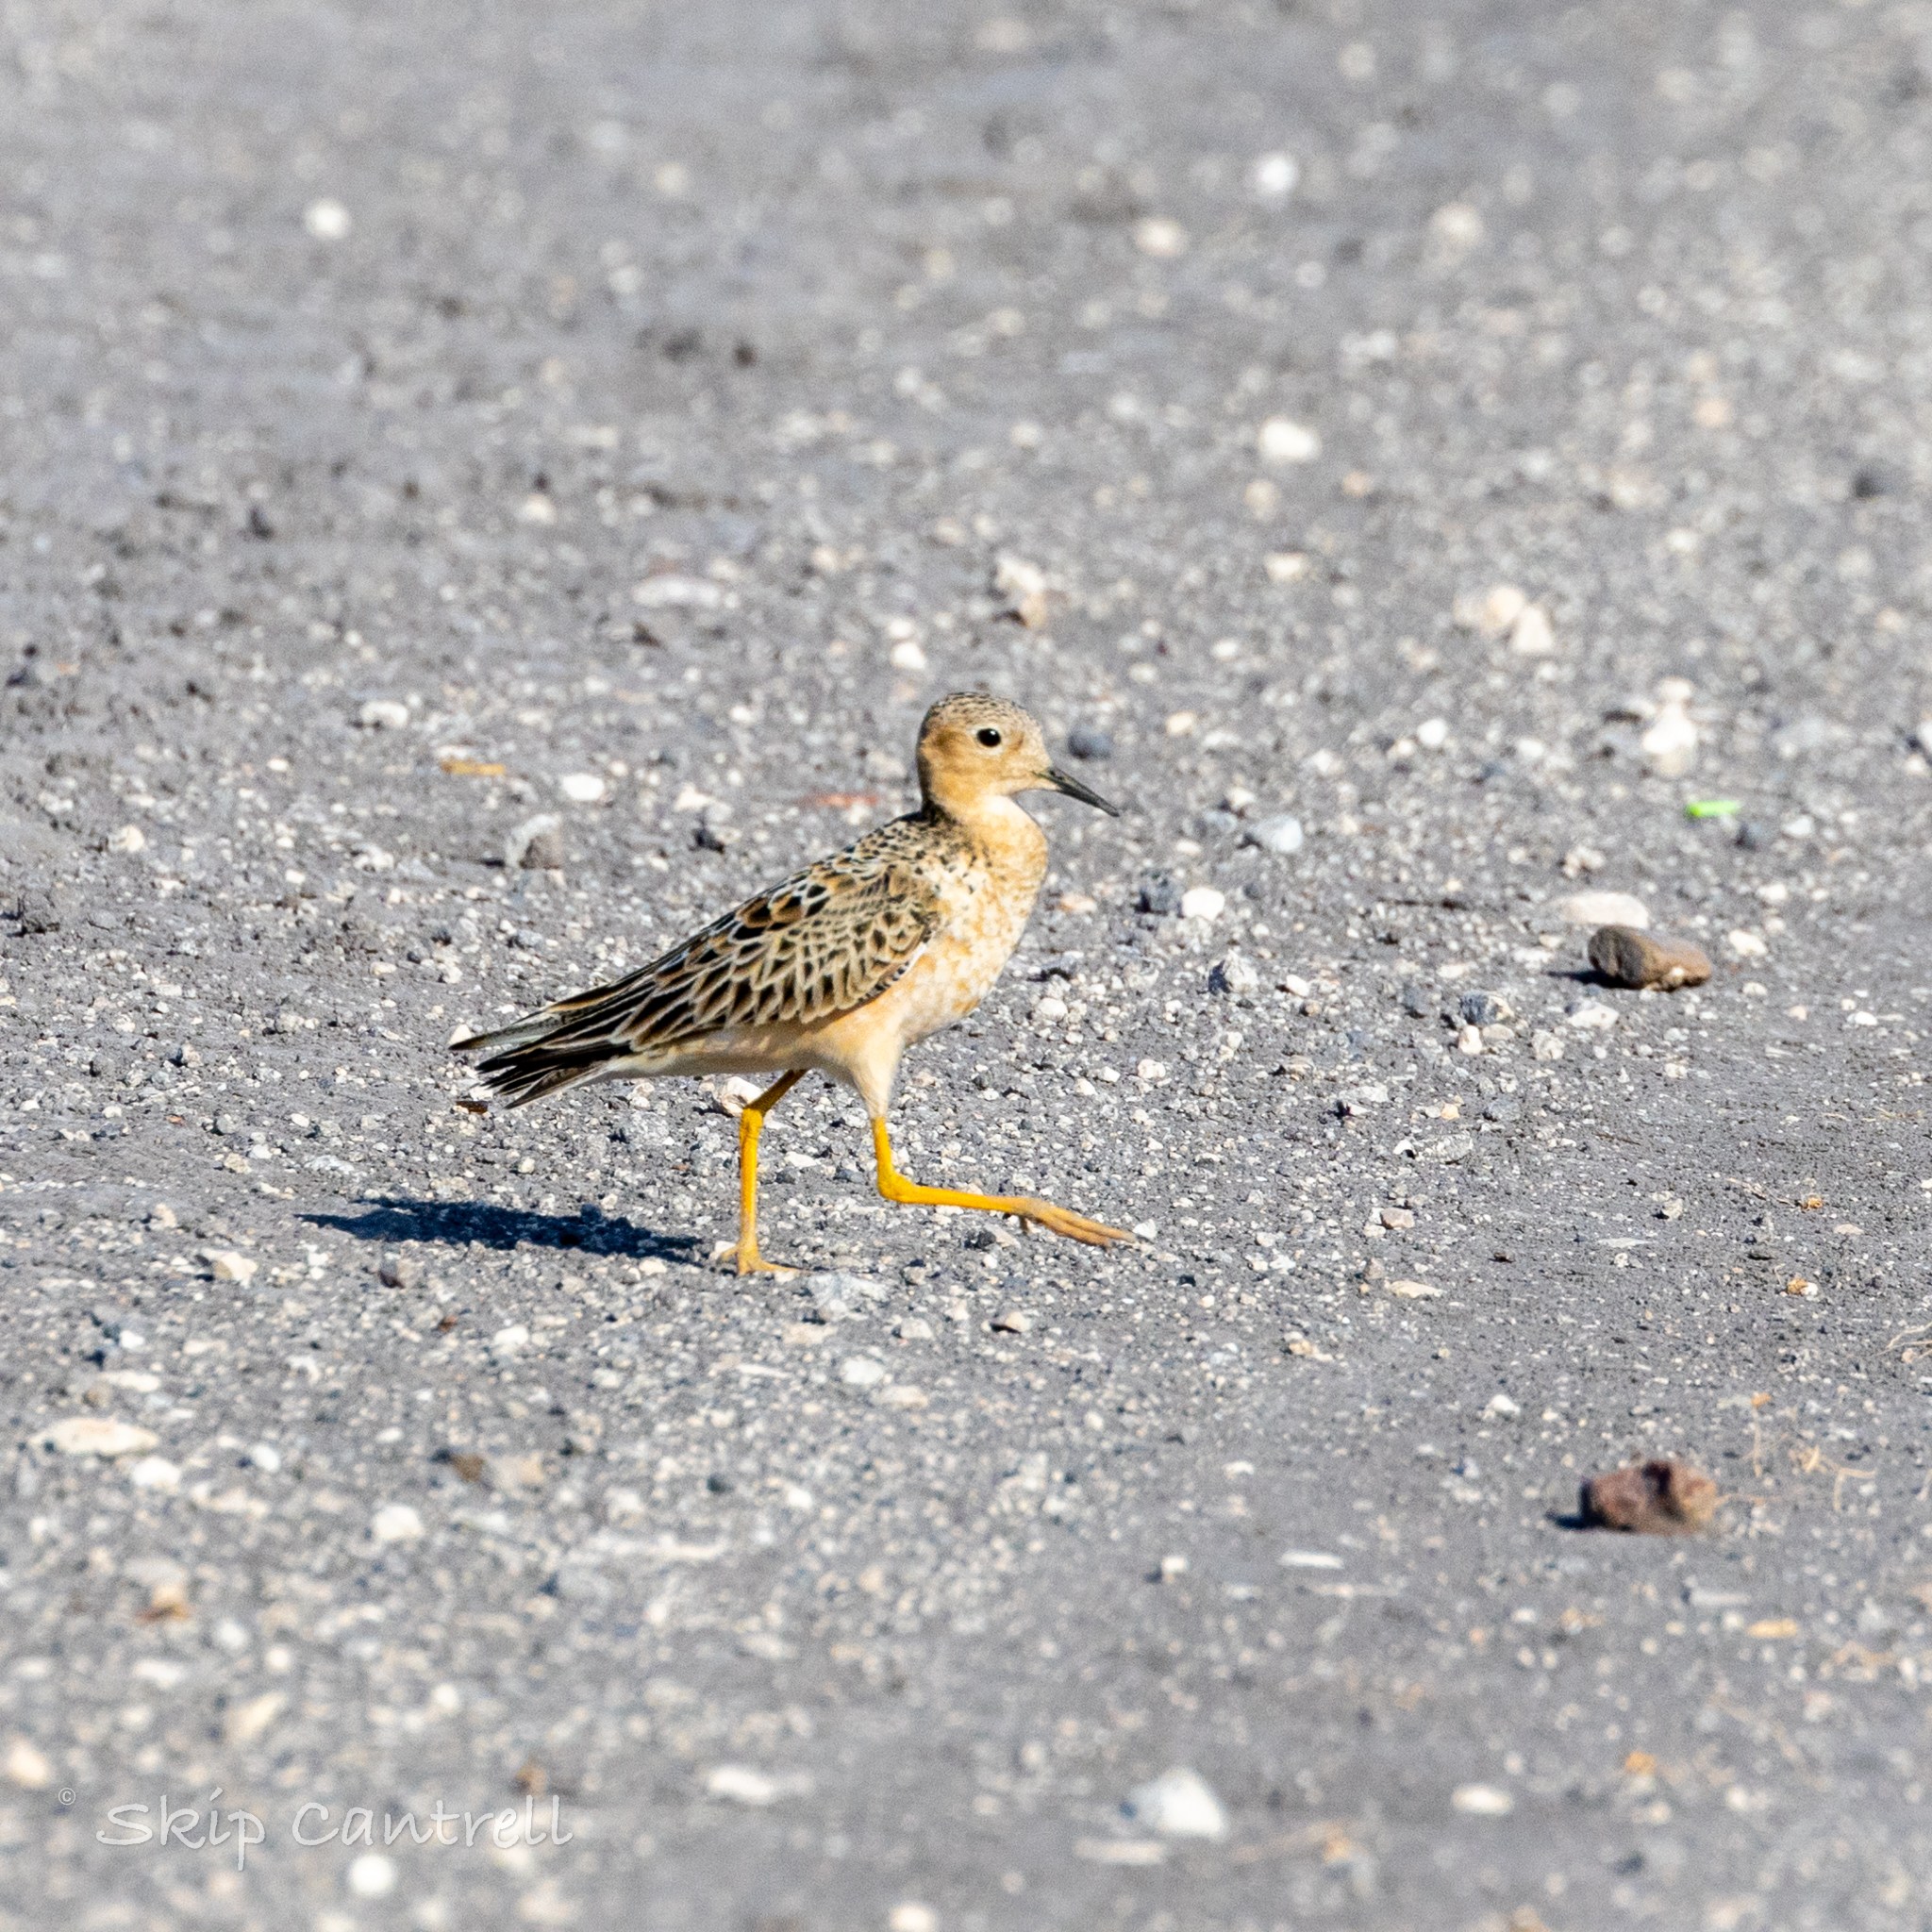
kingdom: Animalia
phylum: Chordata
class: Aves
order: Charadriiformes
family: Scolopacidae
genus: Calidris
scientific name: Calidris subruficollis
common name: Buff-breasted sandpiper
